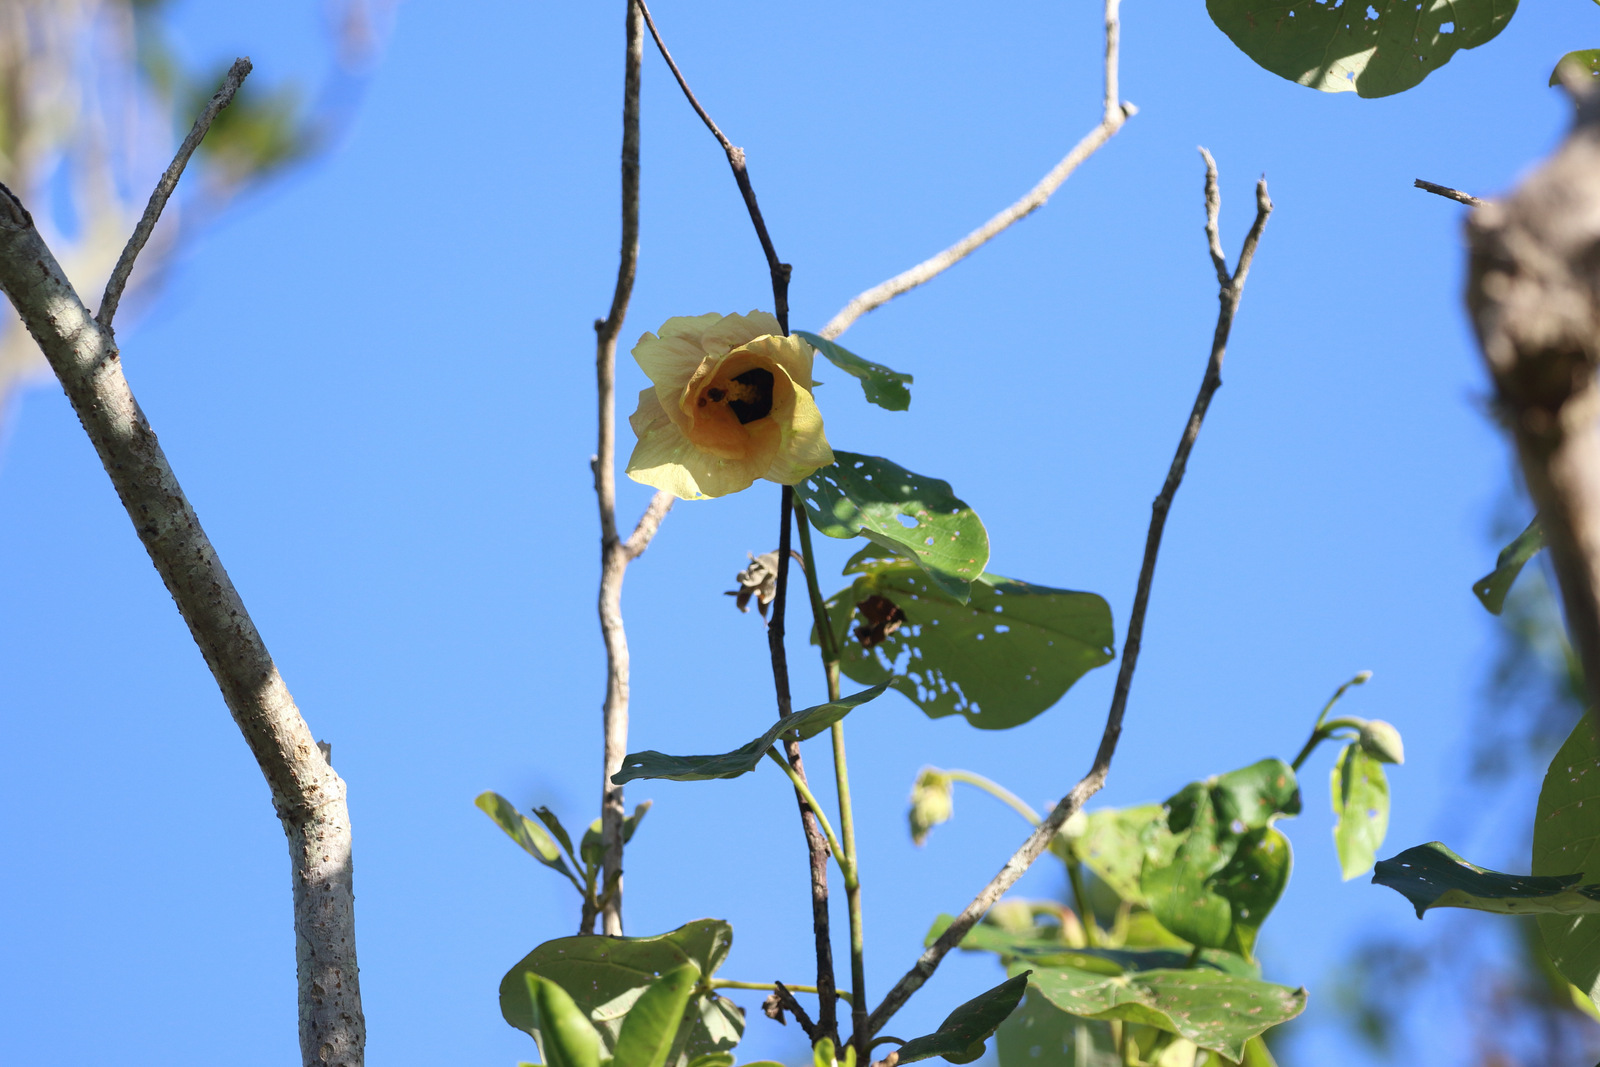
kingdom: Plantae
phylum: Tracheophyta
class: Magnoliopsida
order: Malvales
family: Malvaceae
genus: Talipariti
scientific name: Talipariti tiliaceum
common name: Sea hibiscus
